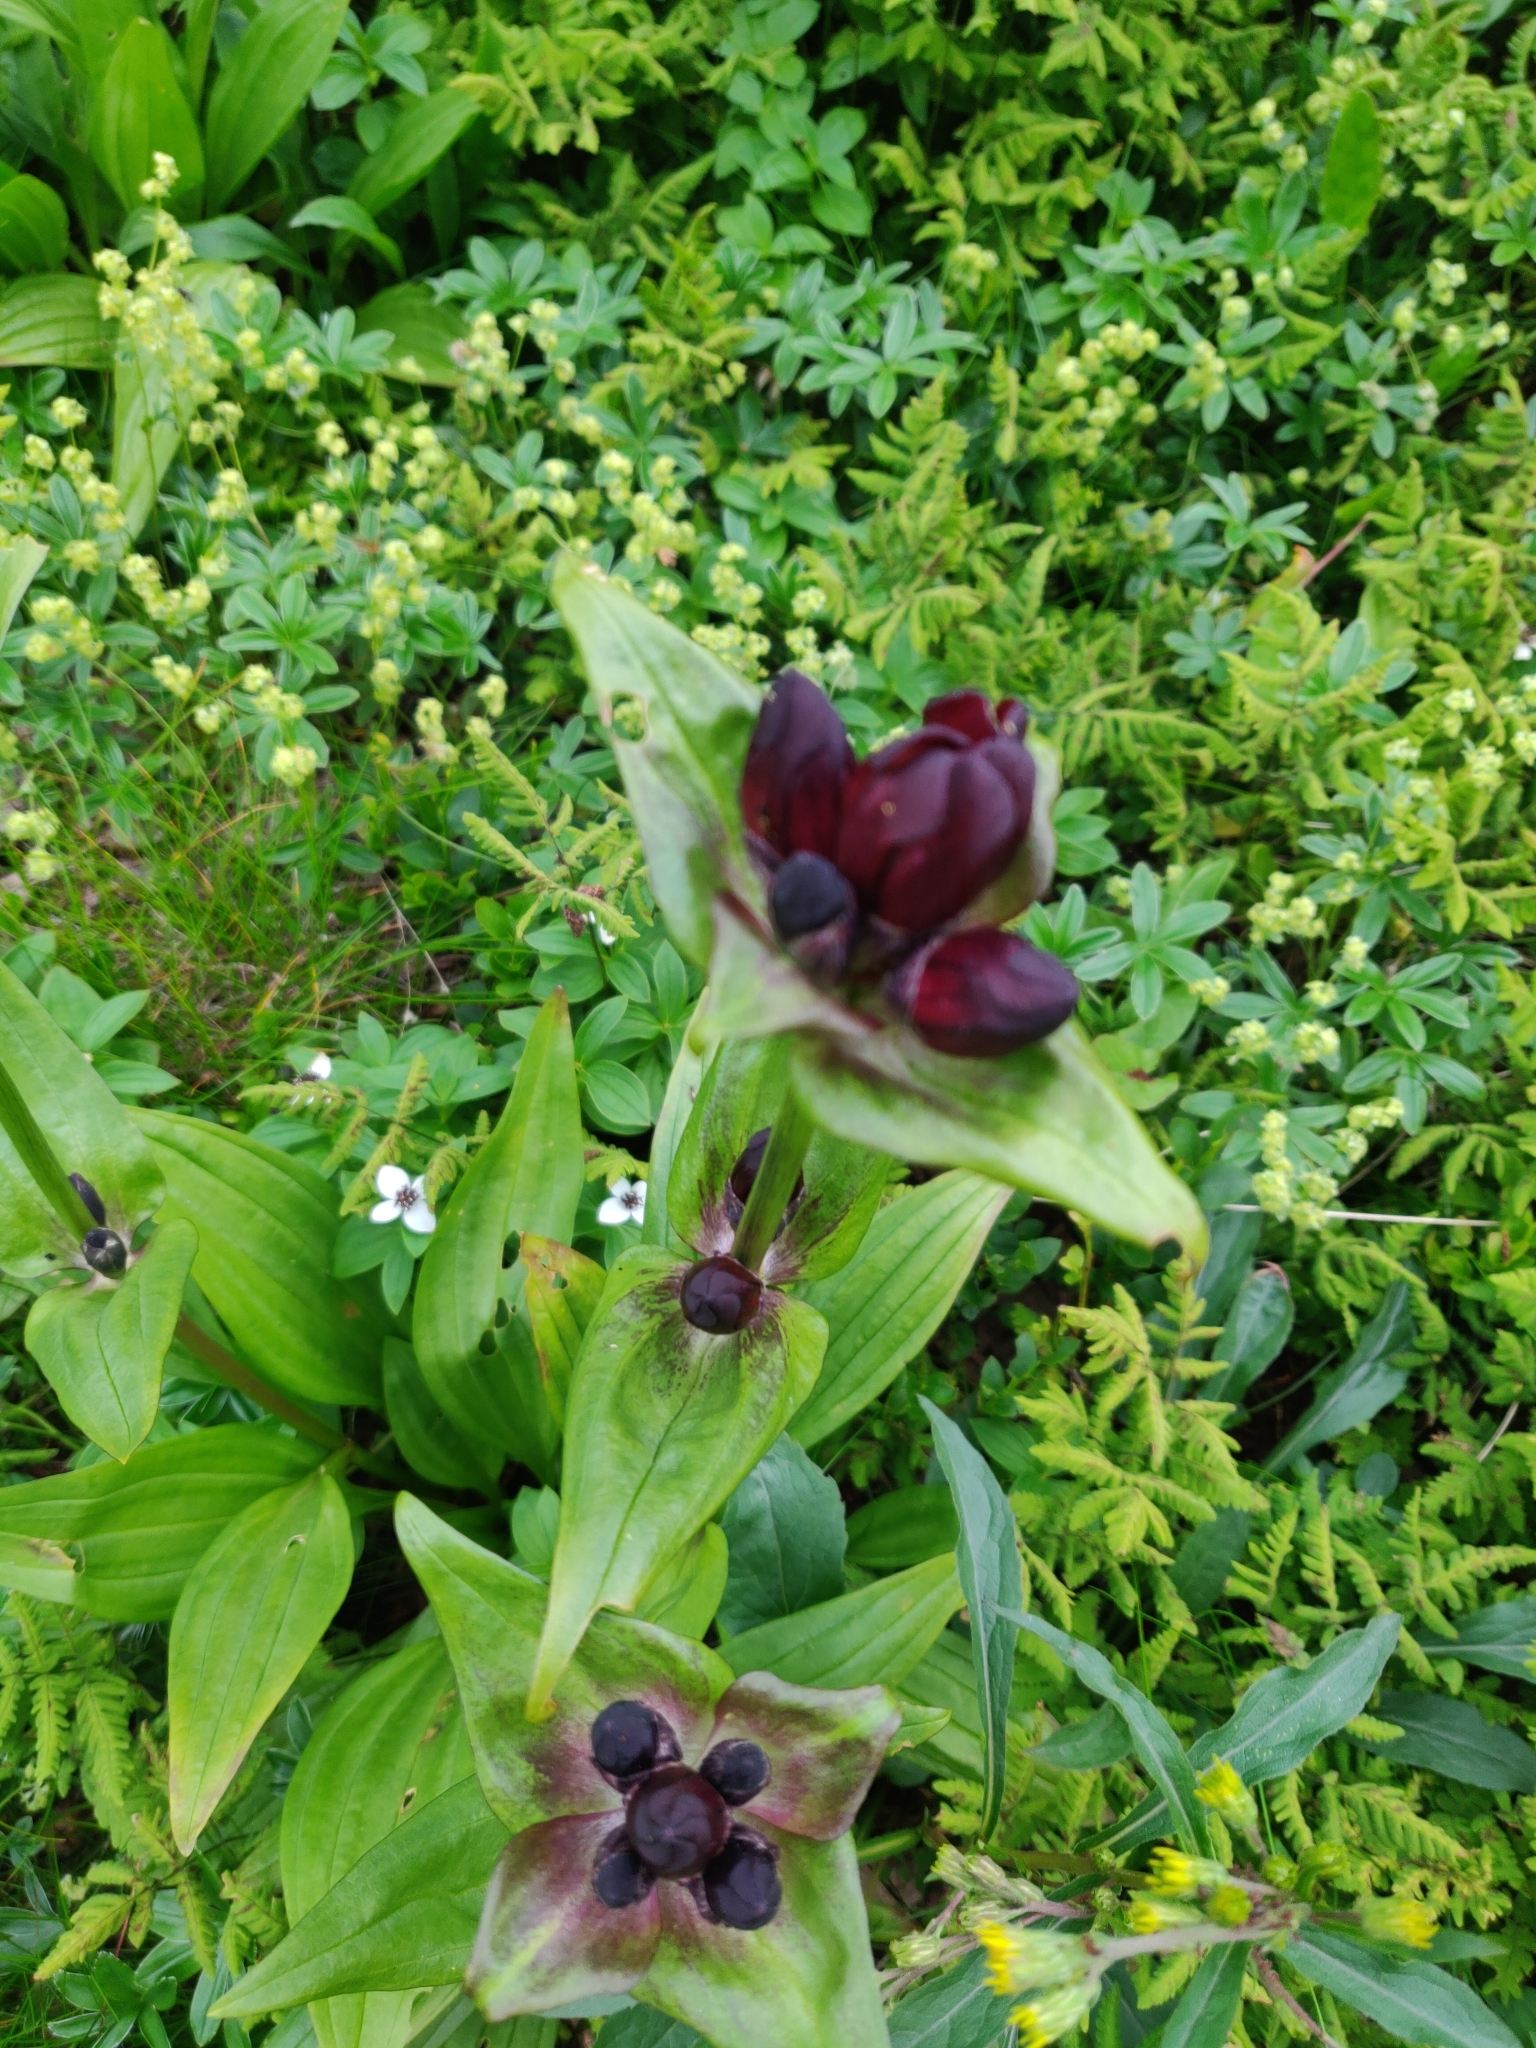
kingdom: Plantae
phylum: Tracheophyta
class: Magnoliopsida
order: Gentianales
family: Gentianaceae
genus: Gentiana
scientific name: Gentiana purpurea
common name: Purple gentian
